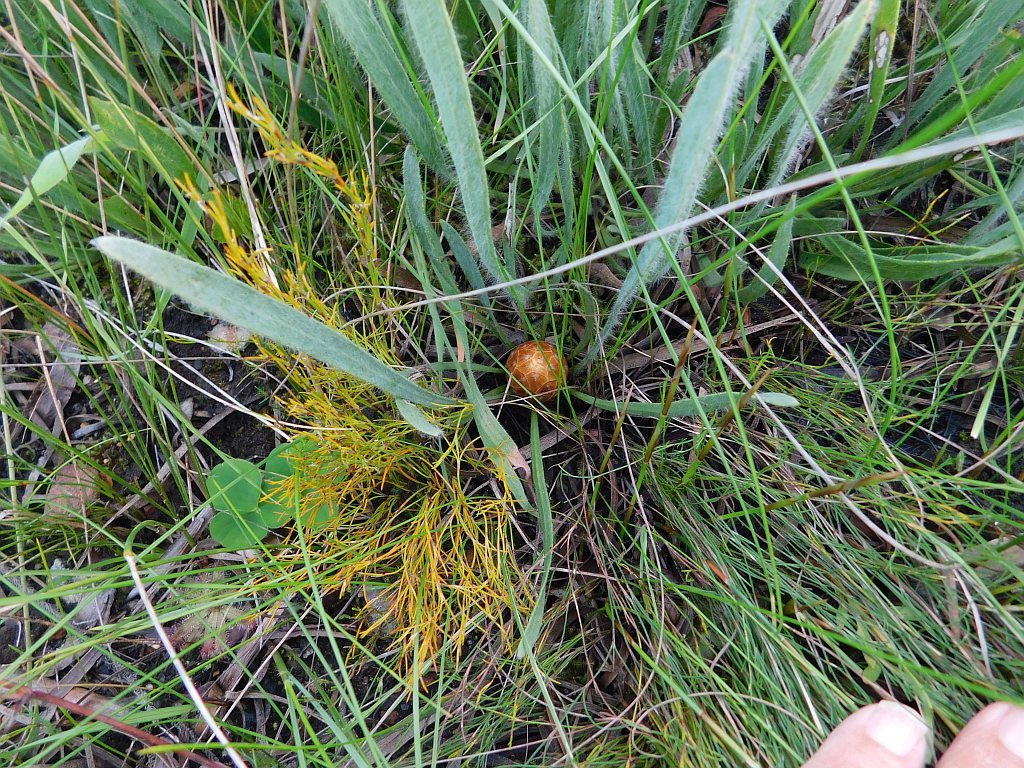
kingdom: Plantae
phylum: Tracheophyta
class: Magnoliopsida
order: Proteales
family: Proteaceae
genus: Protea
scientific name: Protea scabra
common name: Sandpaper-leaf sugarbush
